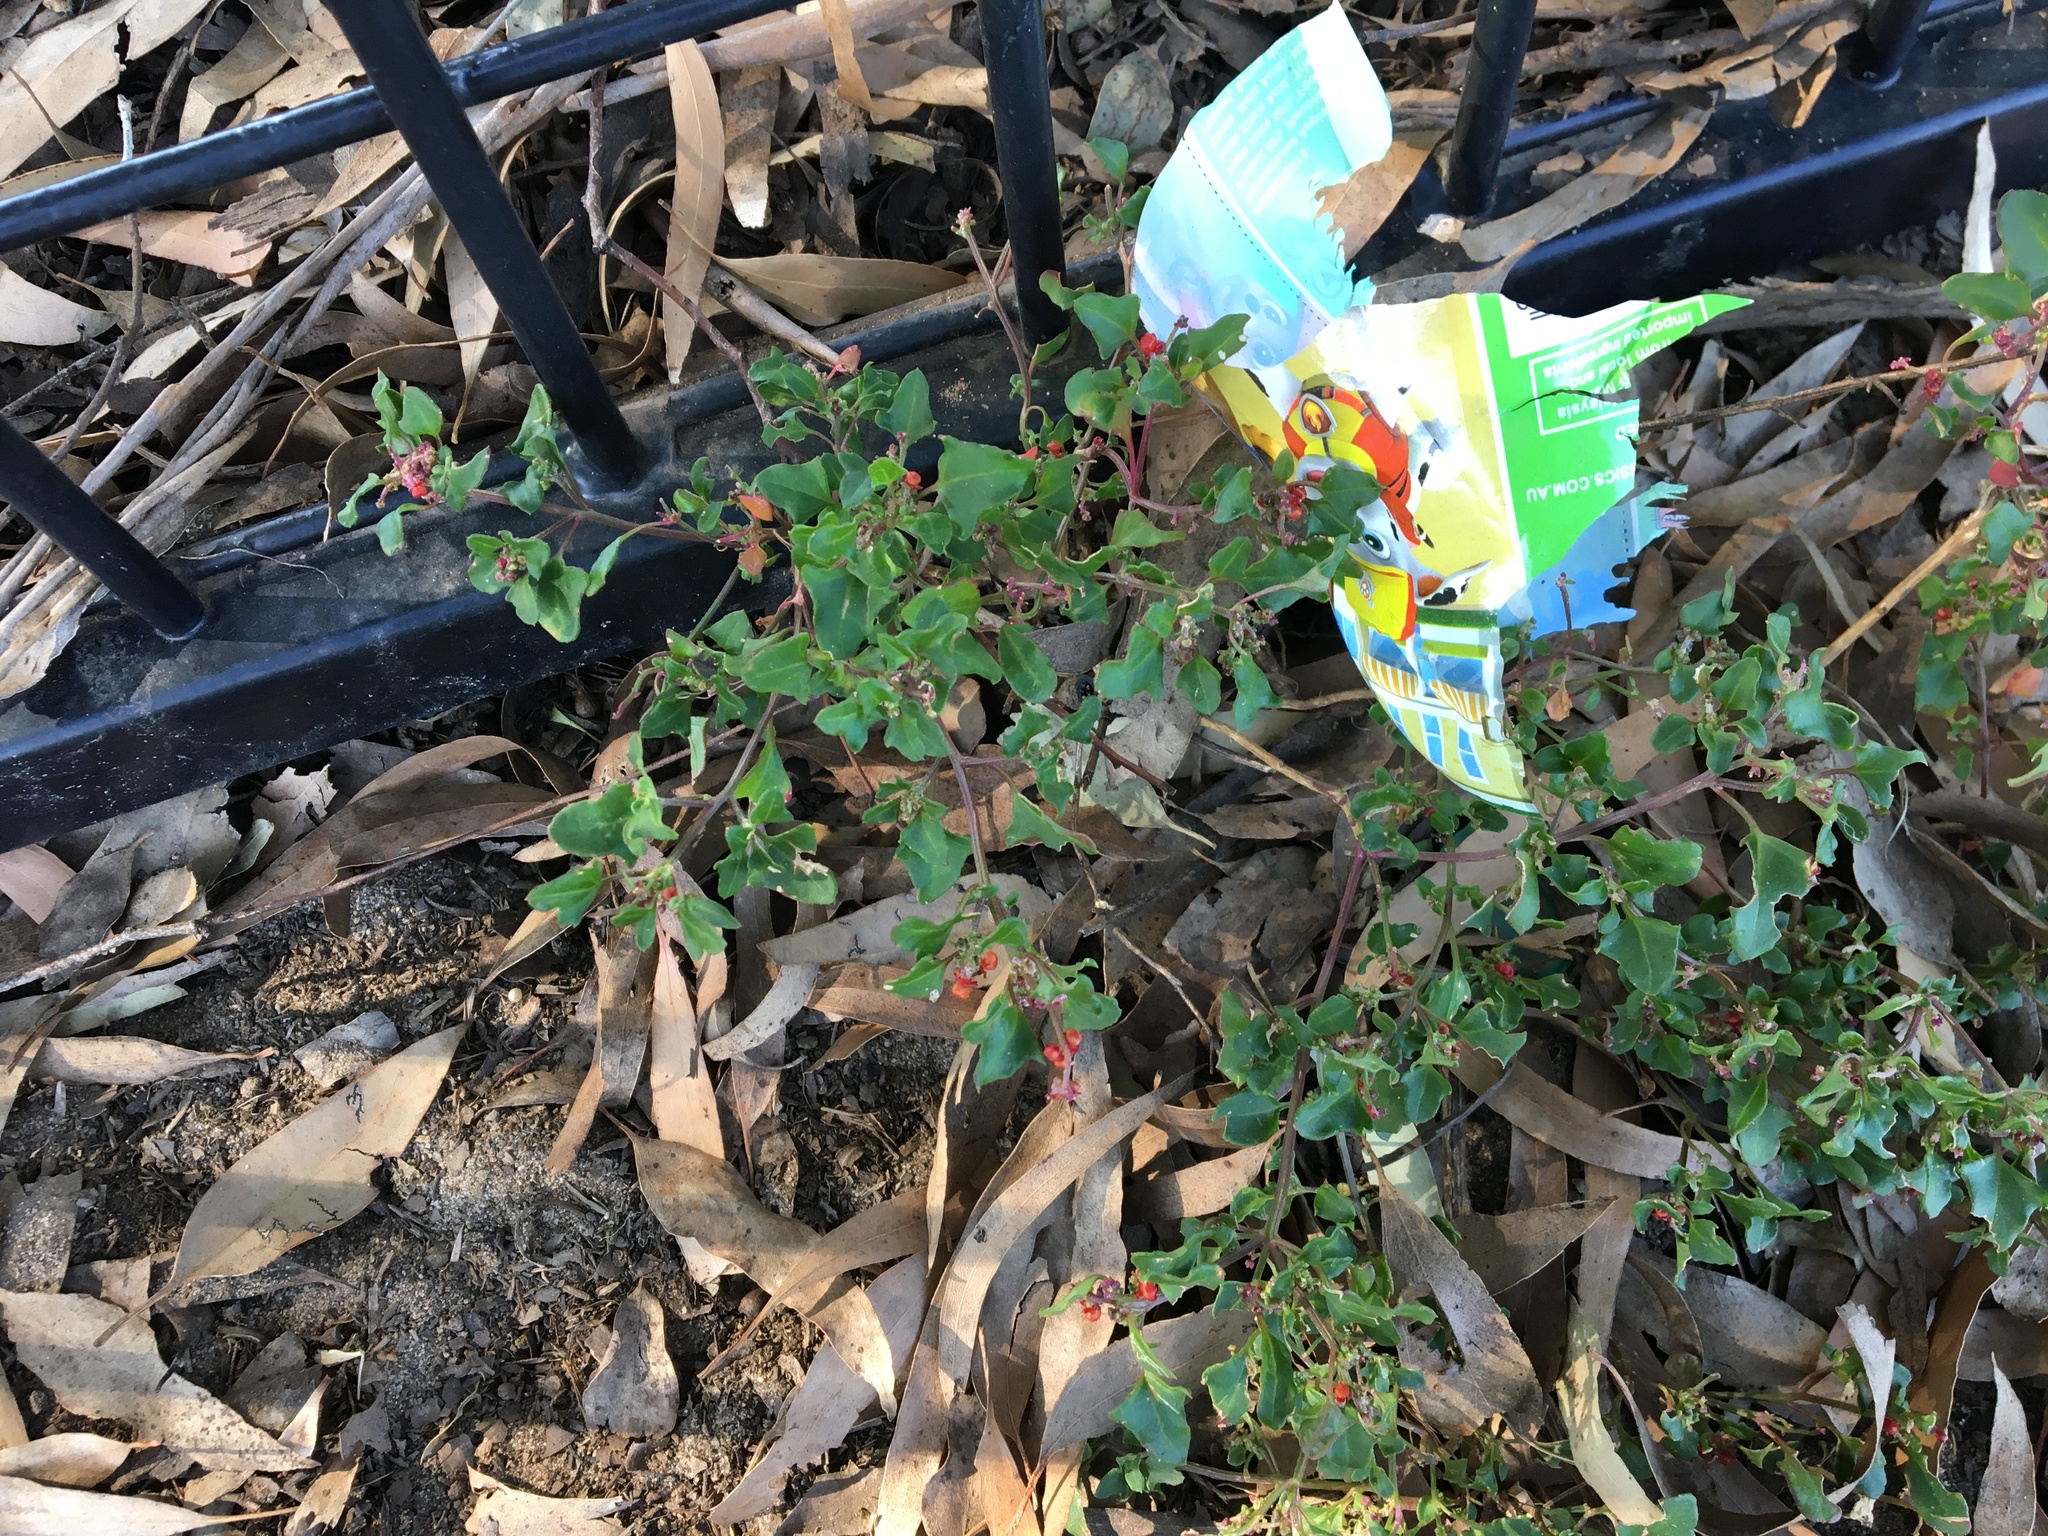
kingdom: Plantae
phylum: Tracheophyta
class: Magnoliopsida
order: Caryophyllales
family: Amaranthaceae
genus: Chenopodium
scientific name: Chenopodium robertianum
